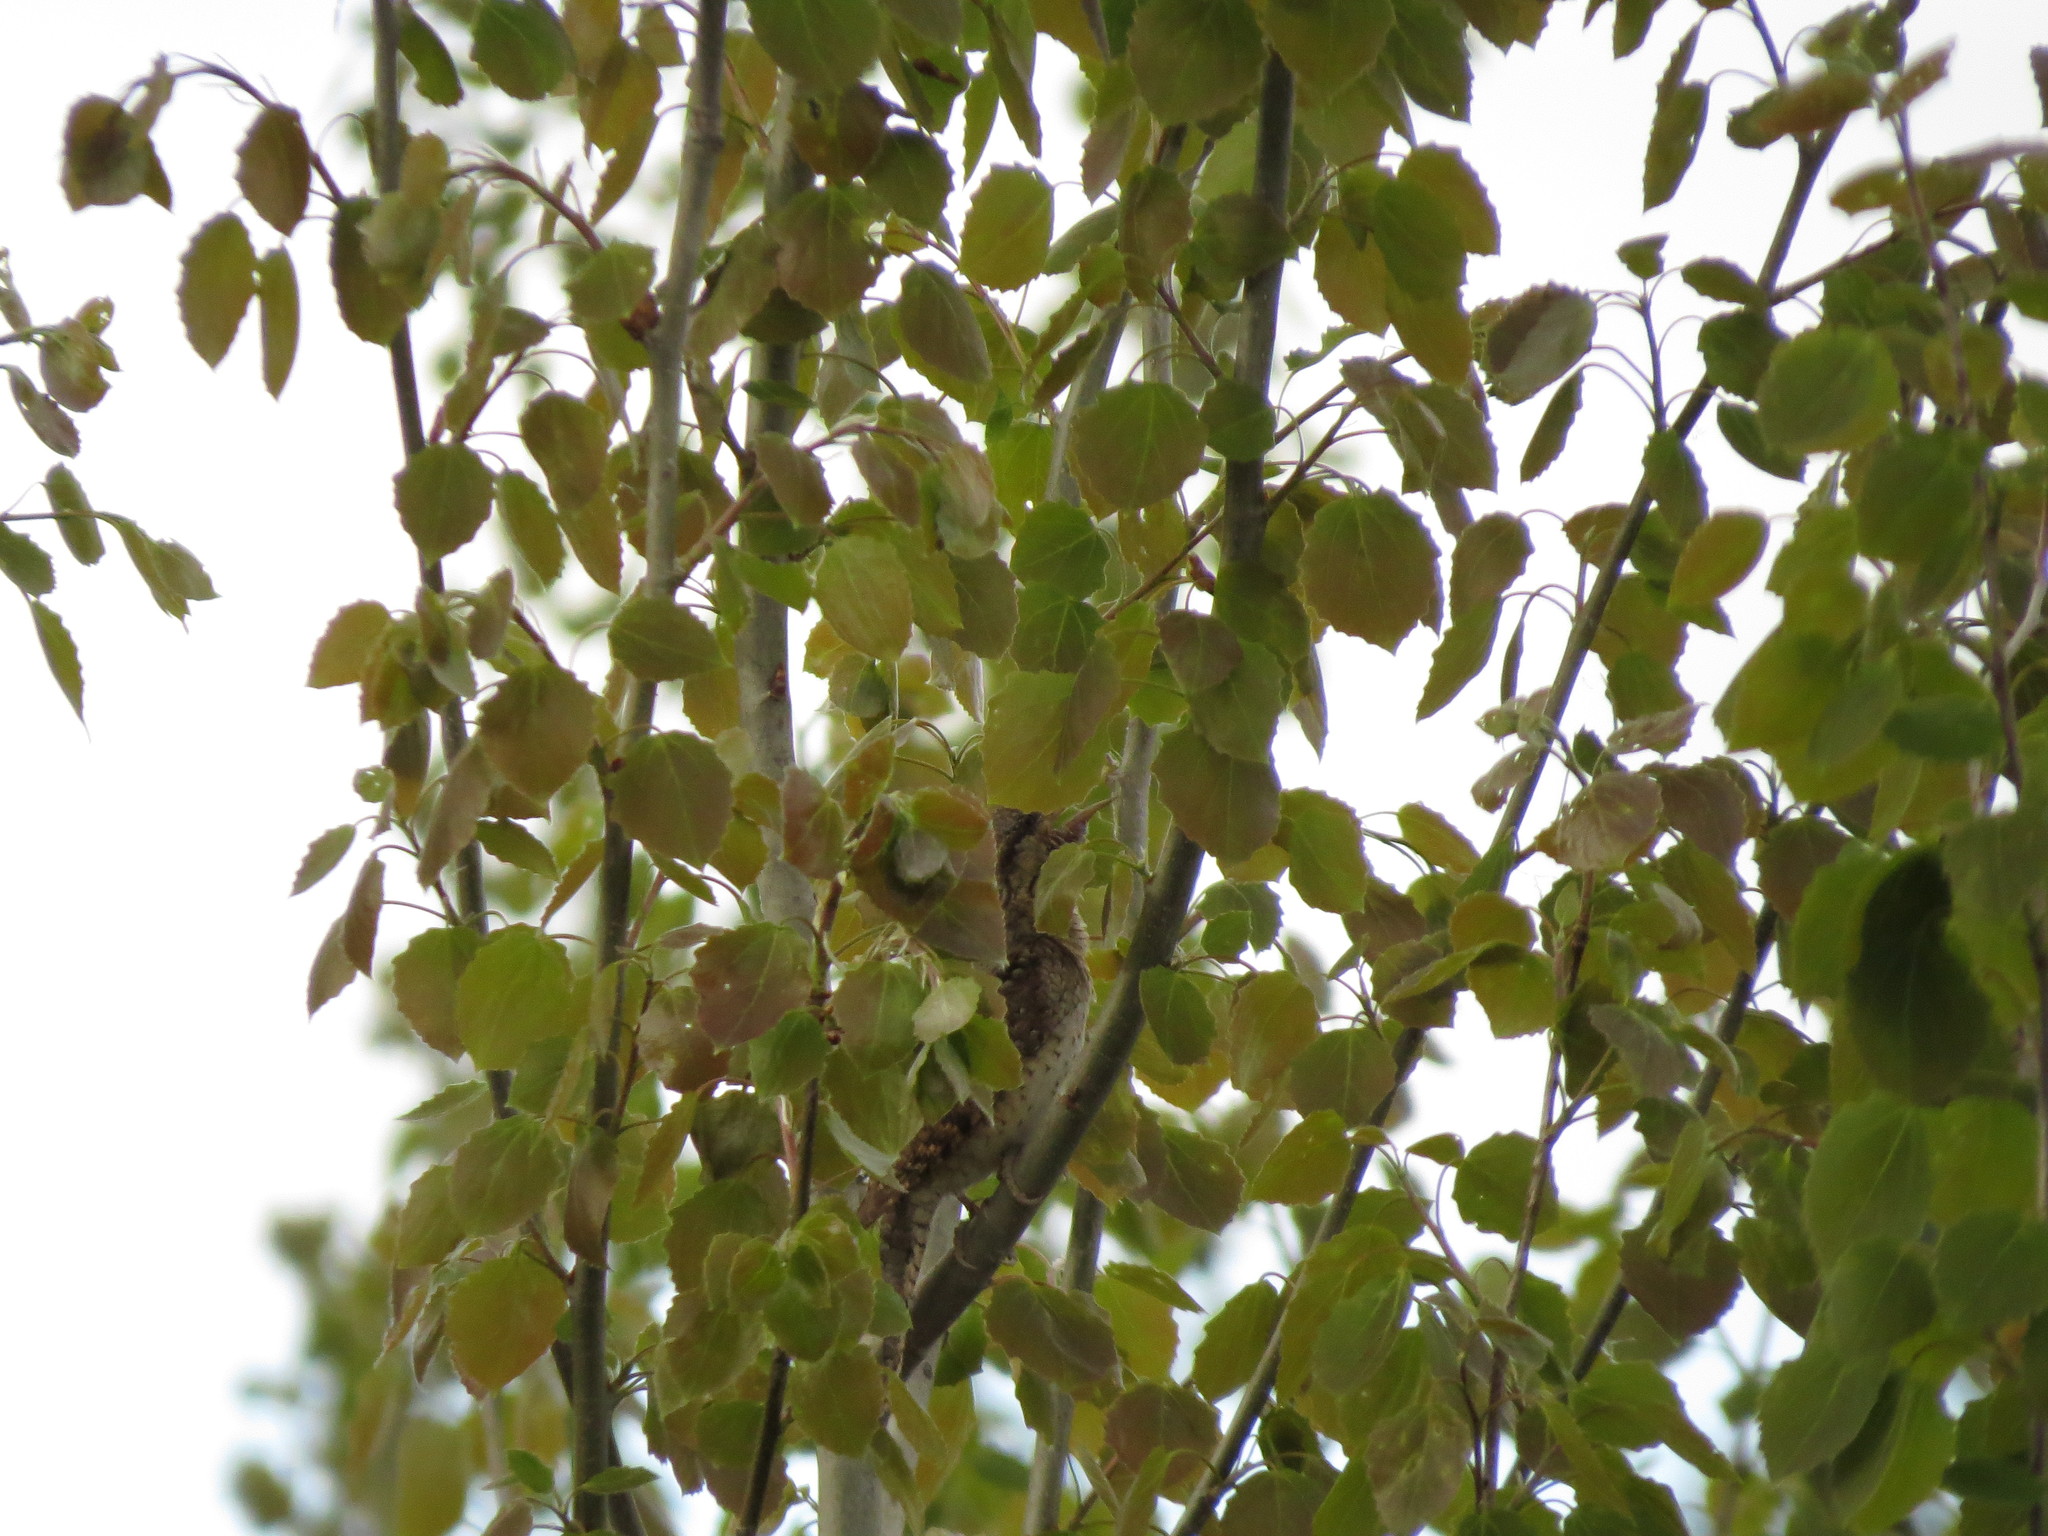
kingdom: Animalia
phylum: Chordata
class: Aves
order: Piciformes
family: Picidae
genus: Jynx
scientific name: Jynx torquilla
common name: Eurasian wryneck
